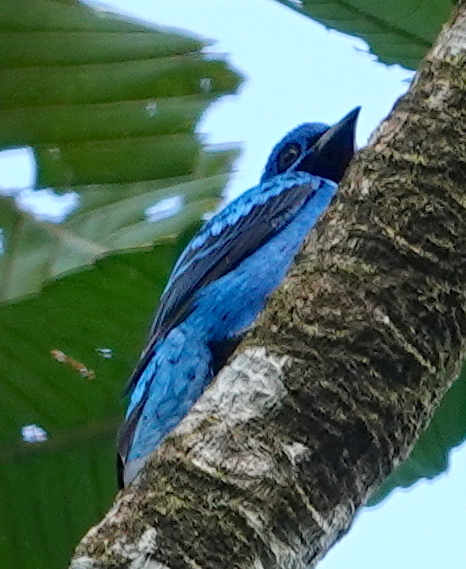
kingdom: Animalia
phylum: Chordata
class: Aves
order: Passeriformes
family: Cotingidae
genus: Cotinga
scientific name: Cotinga nattererii
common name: Blue cotinga
